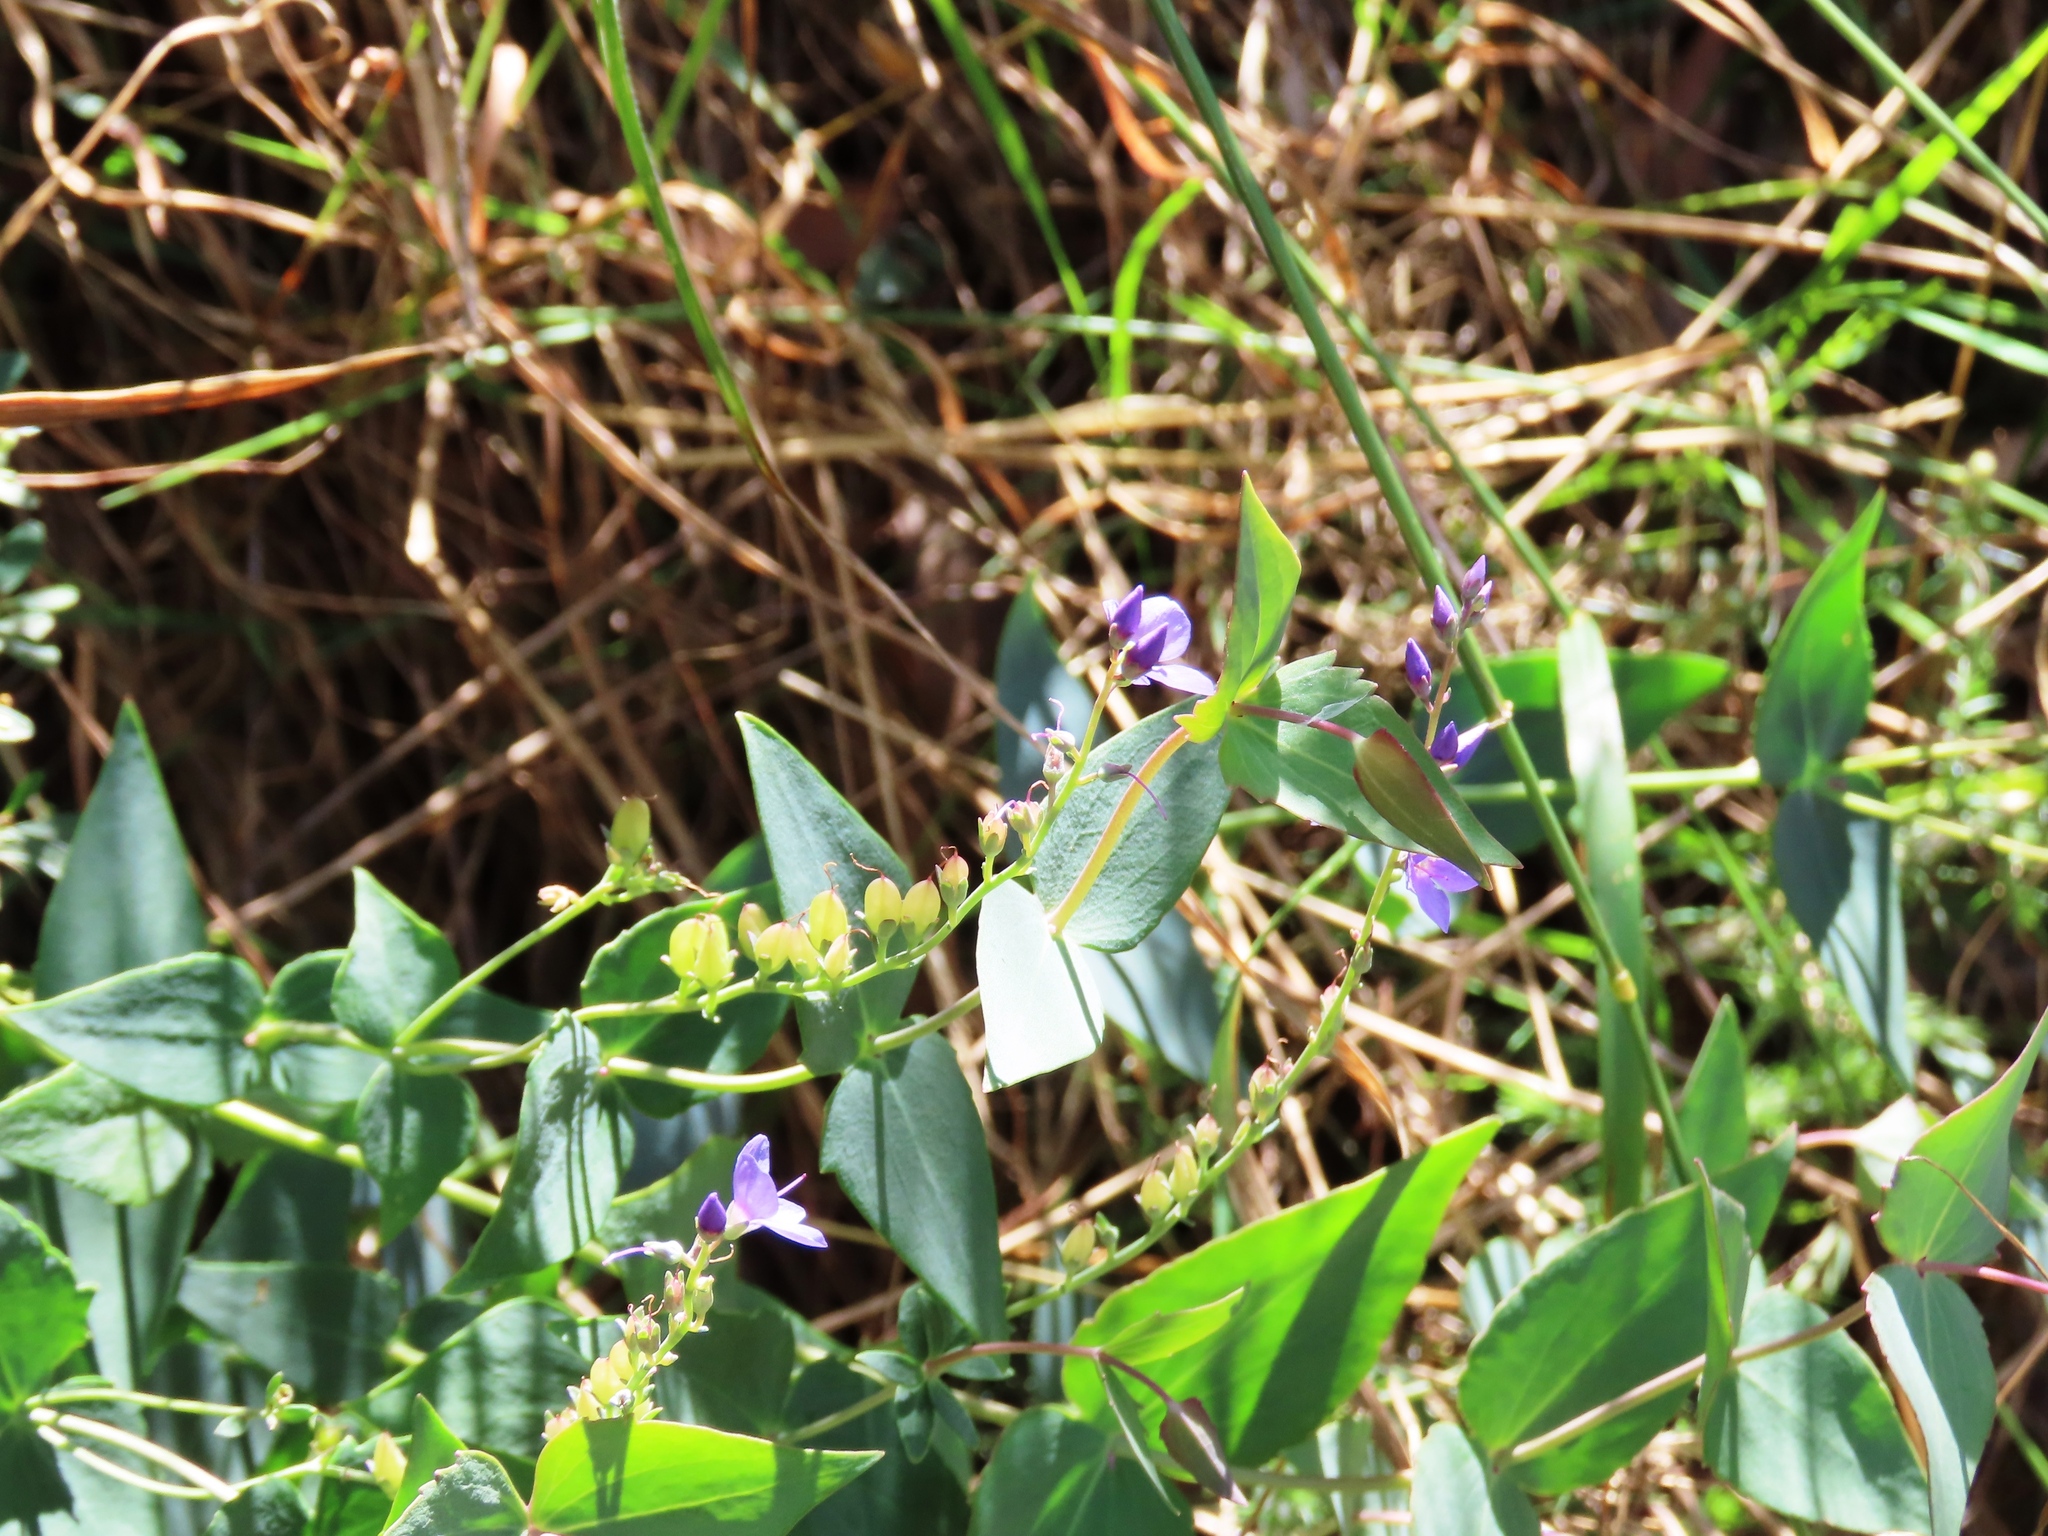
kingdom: Plantae
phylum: Tracheophyta
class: Magnoliopsida
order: Lamiales
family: Plantaginaceae
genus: Veronica
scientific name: Veronica perfoliata
